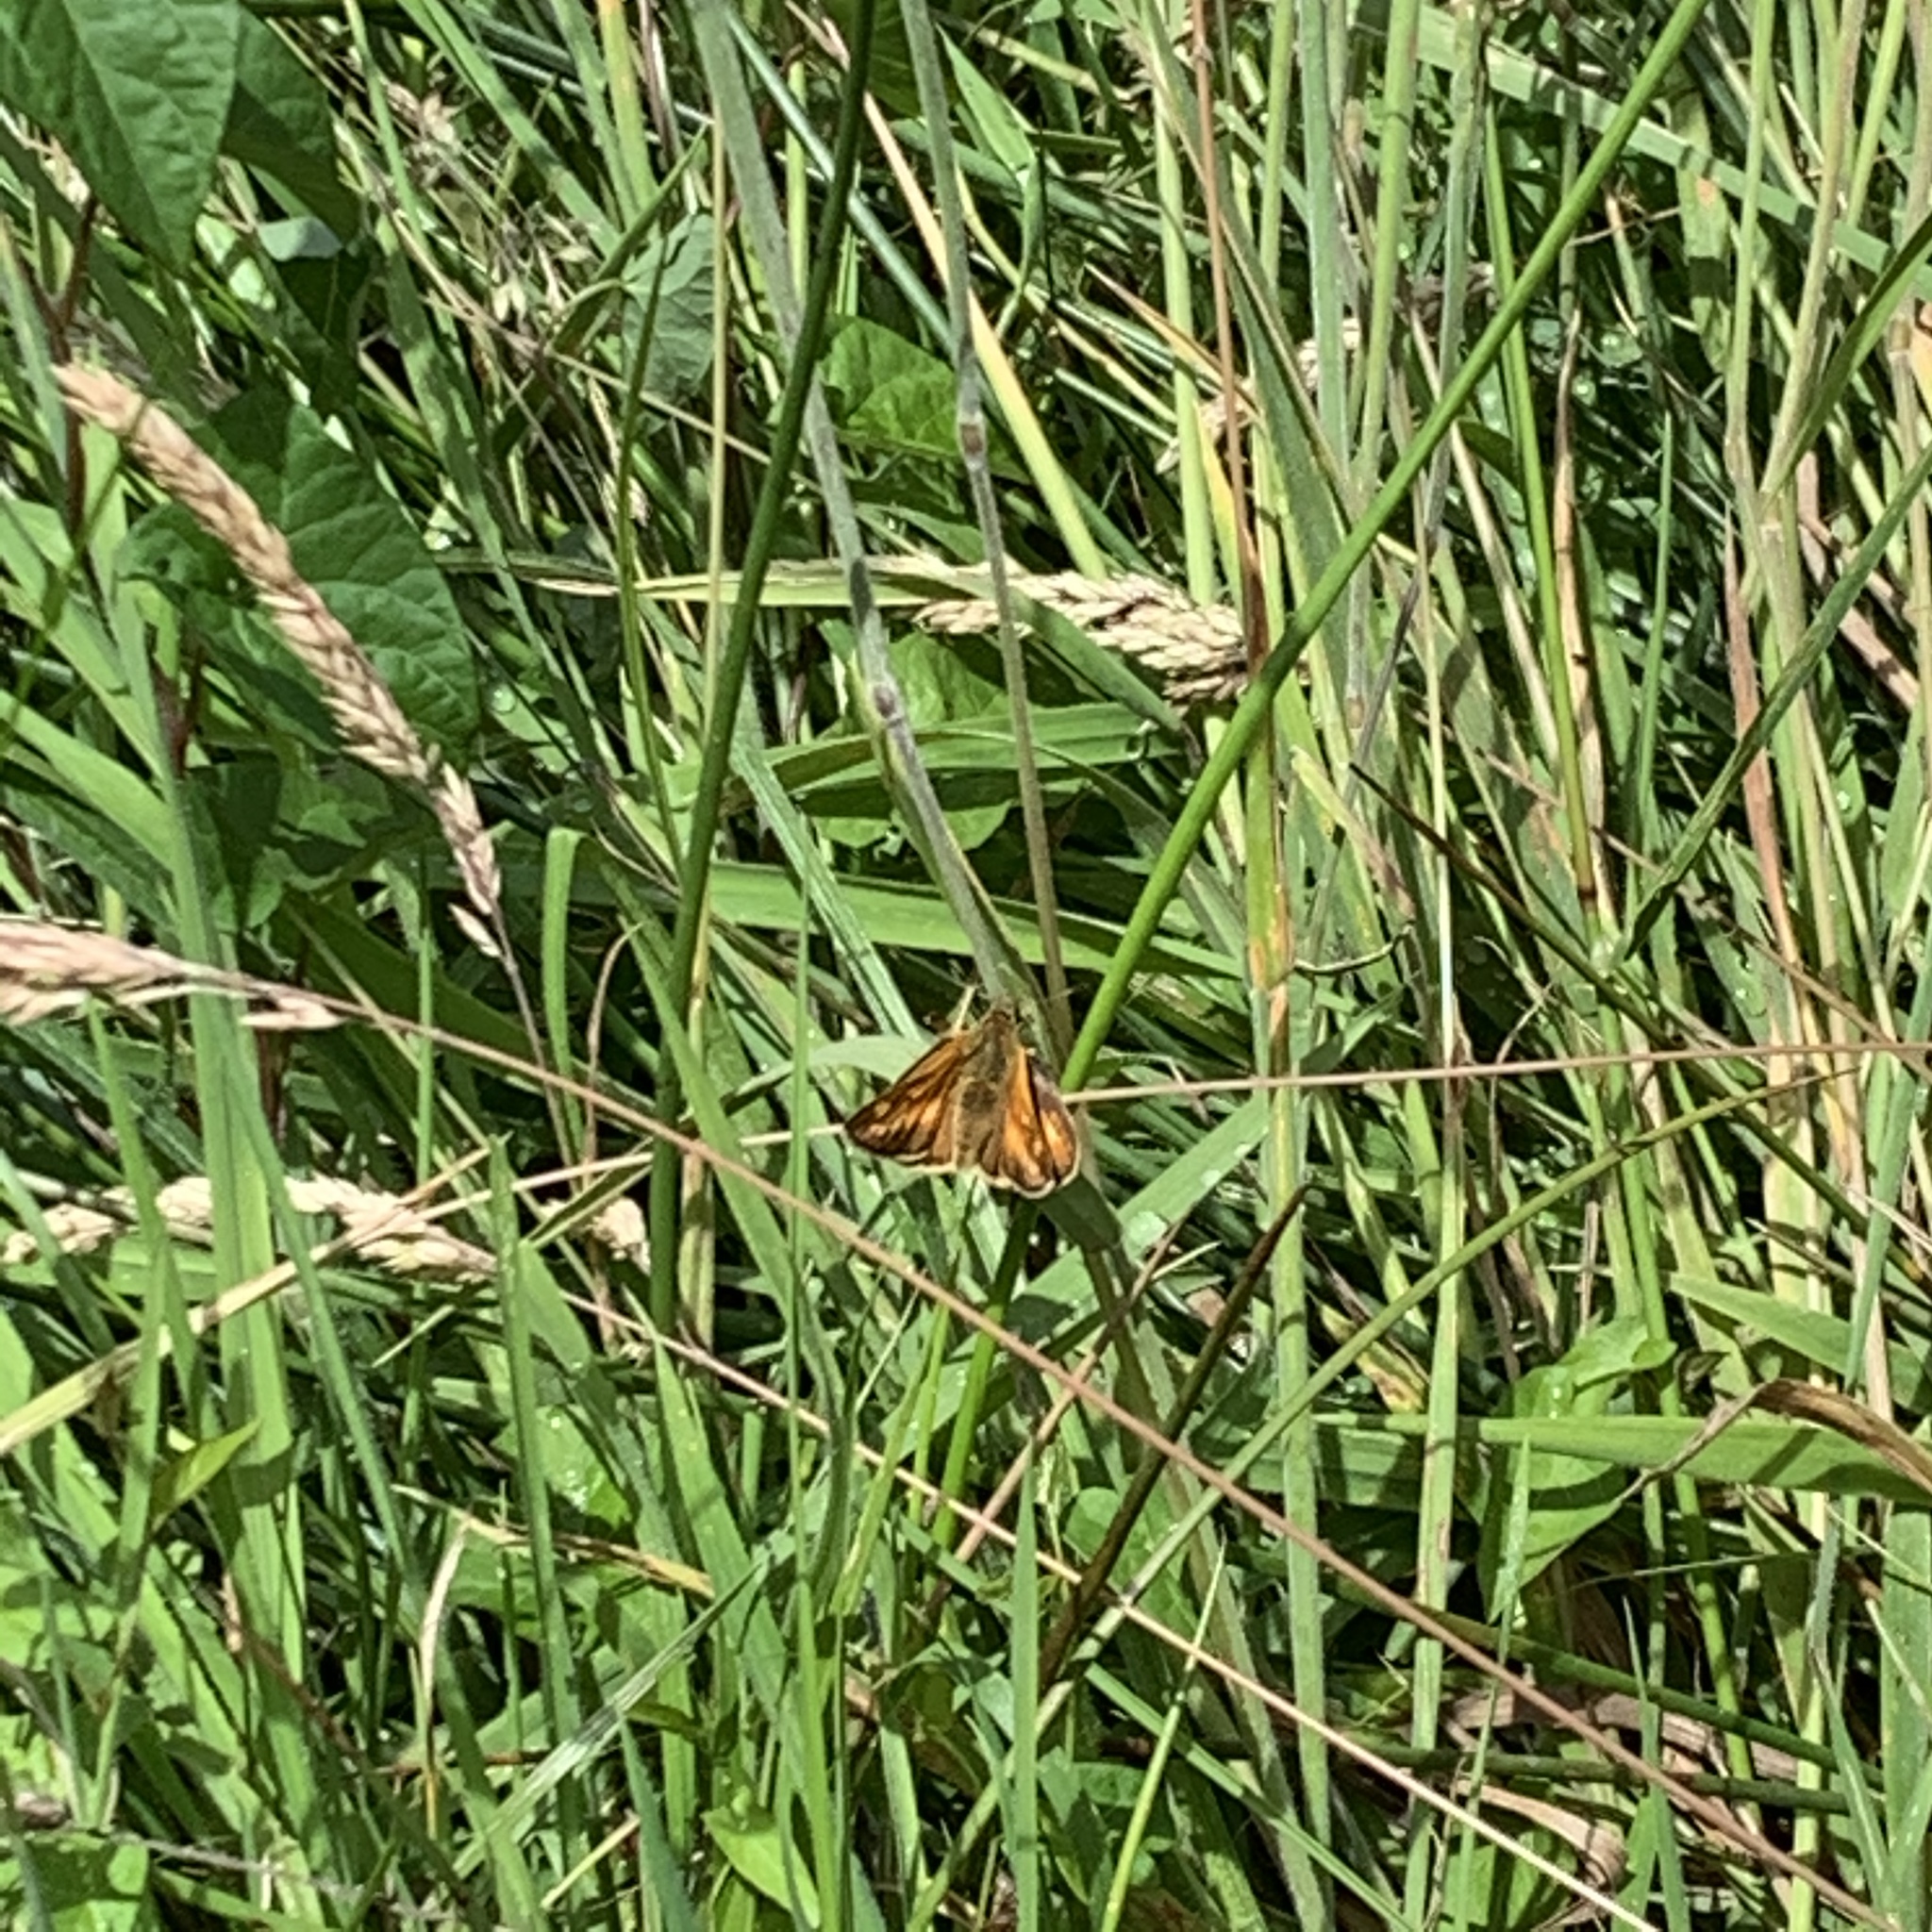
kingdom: Animalia
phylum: Arthropoda
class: Insecta
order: Lepidoptera
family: Hesperiidae
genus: Ochlodes
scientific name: Ochlodes venata
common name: Large skipper
